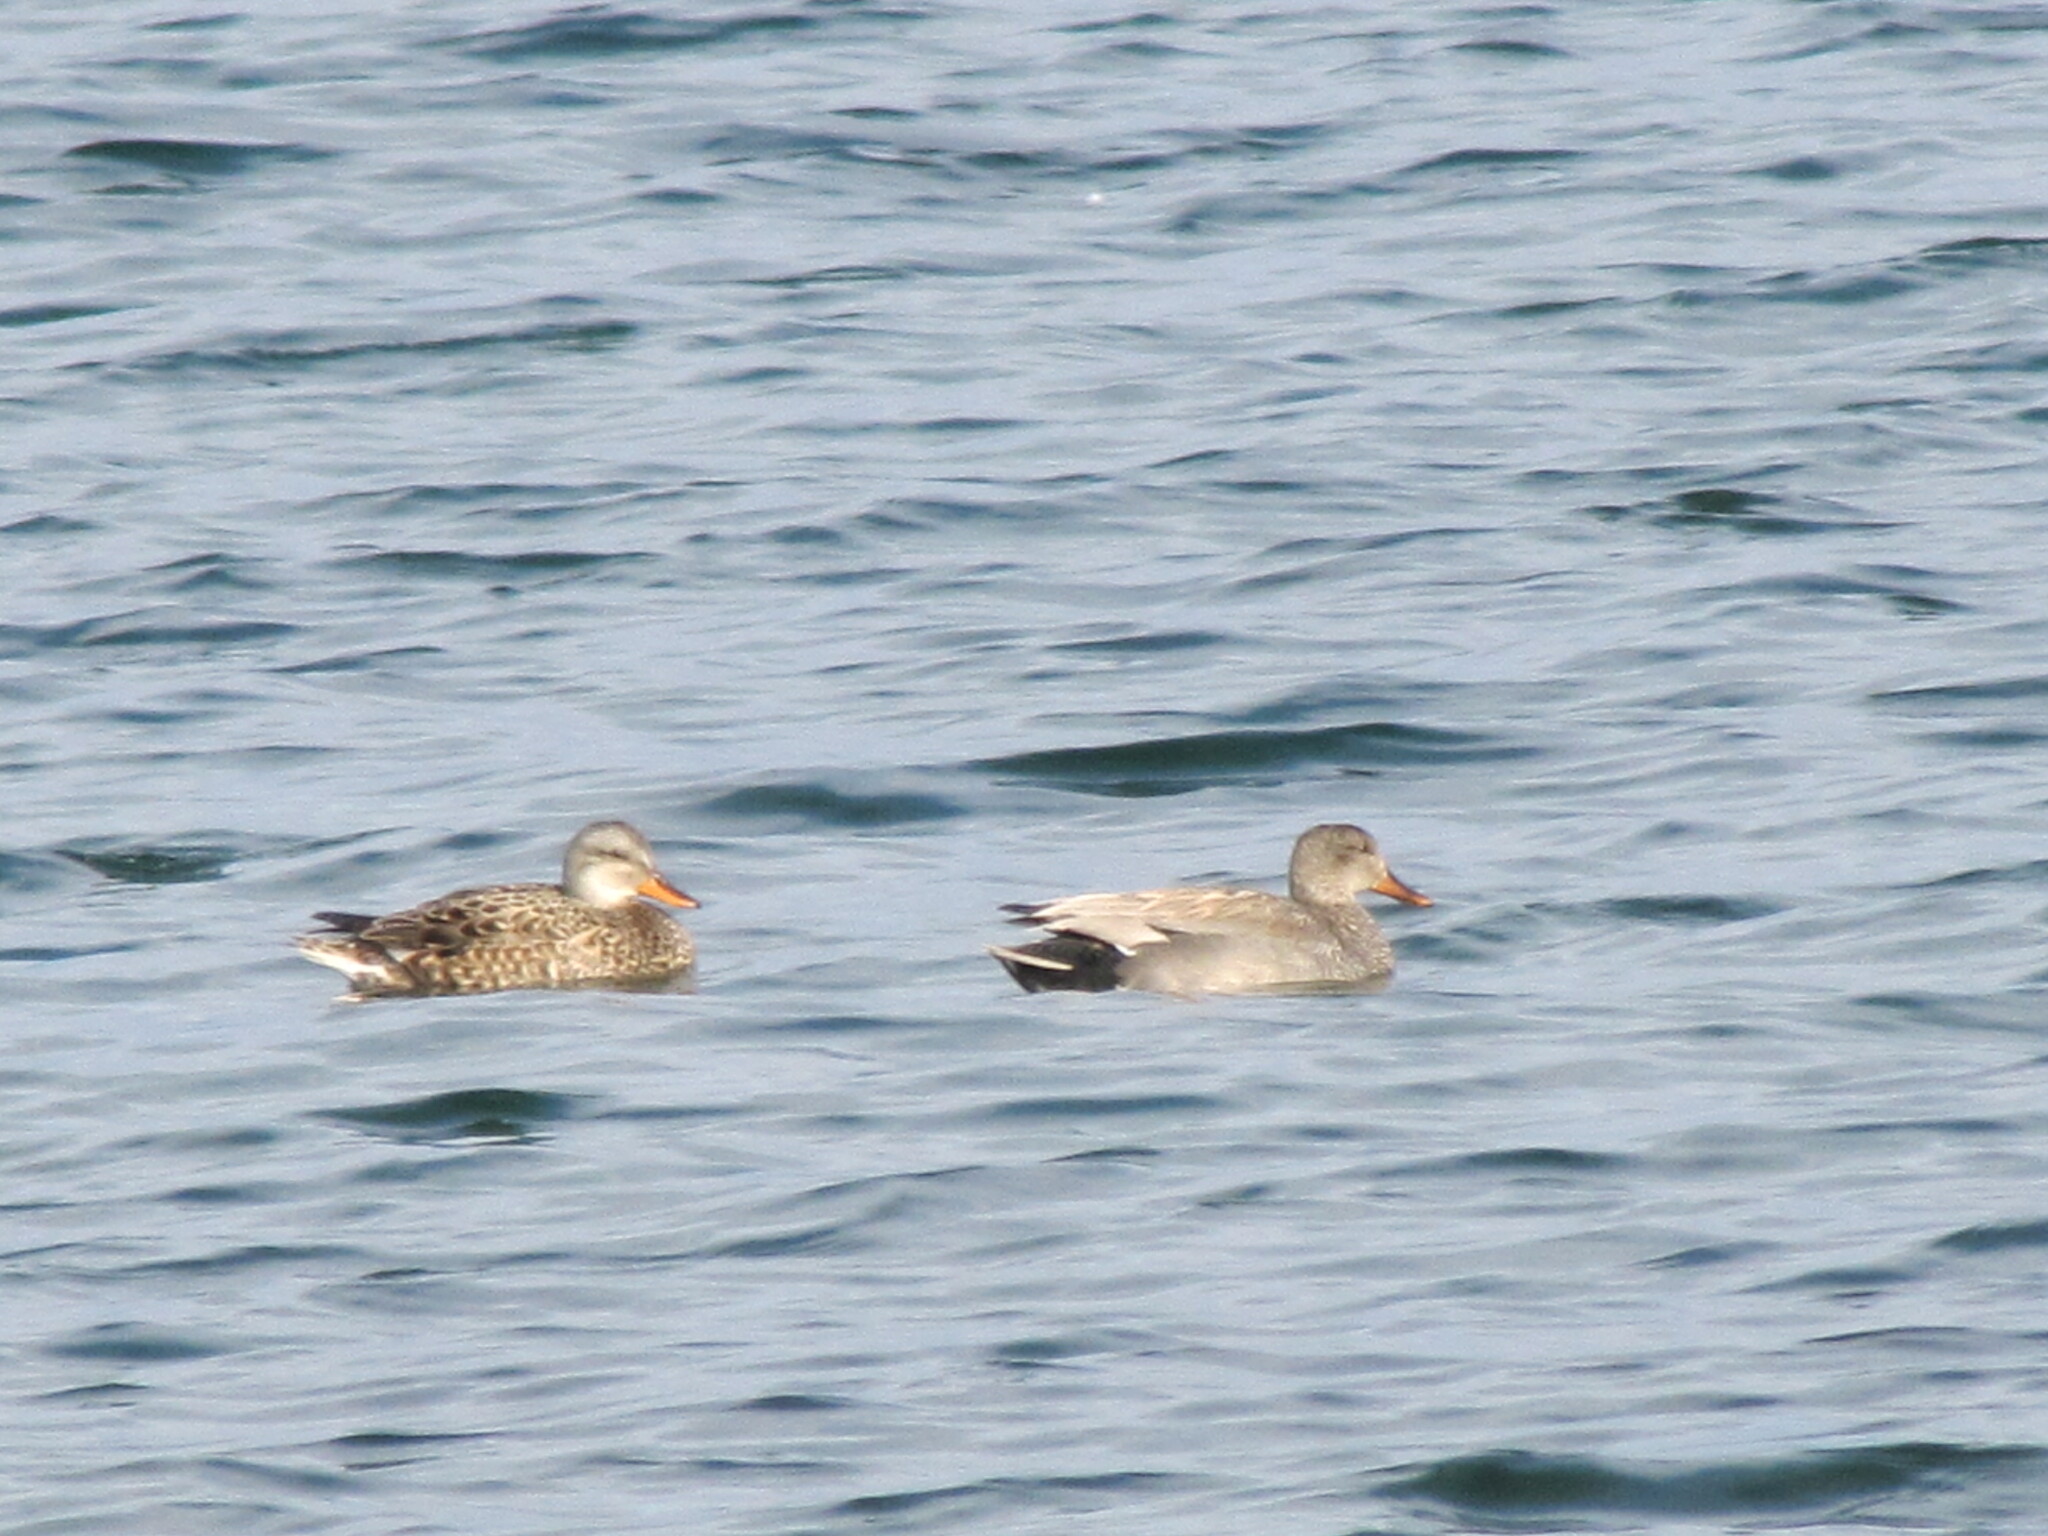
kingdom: Animalia
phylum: Chordata
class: Aves
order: Anseriformes
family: Anatidae
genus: Mareca
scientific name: Mareca strepera
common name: Gadwall
